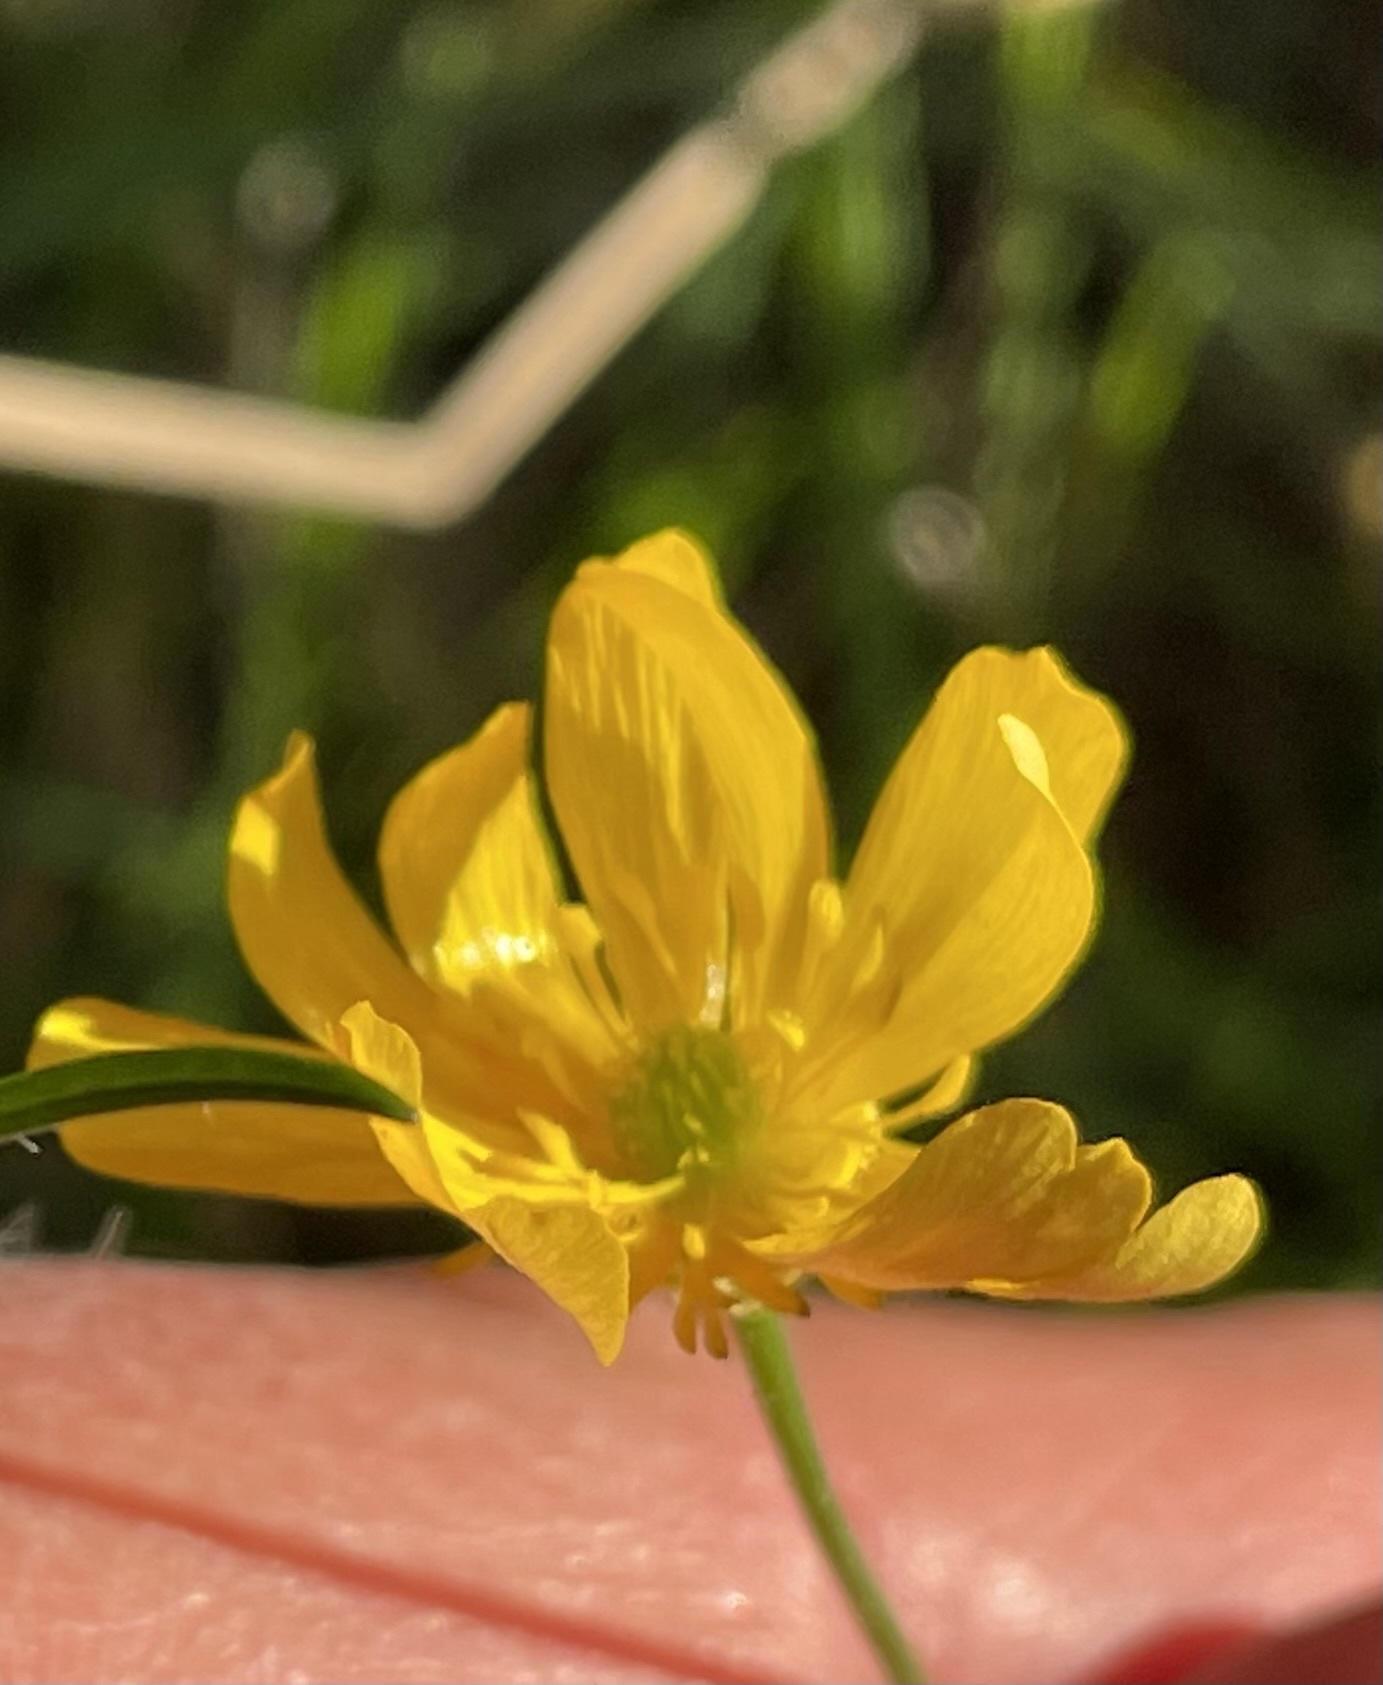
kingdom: Plantae
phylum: Tracheophyta
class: Magnoliopsida
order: Ranunculales
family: Ranunculaceae
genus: Ranunculus
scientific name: Ranunculus californicus
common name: California buttercup
